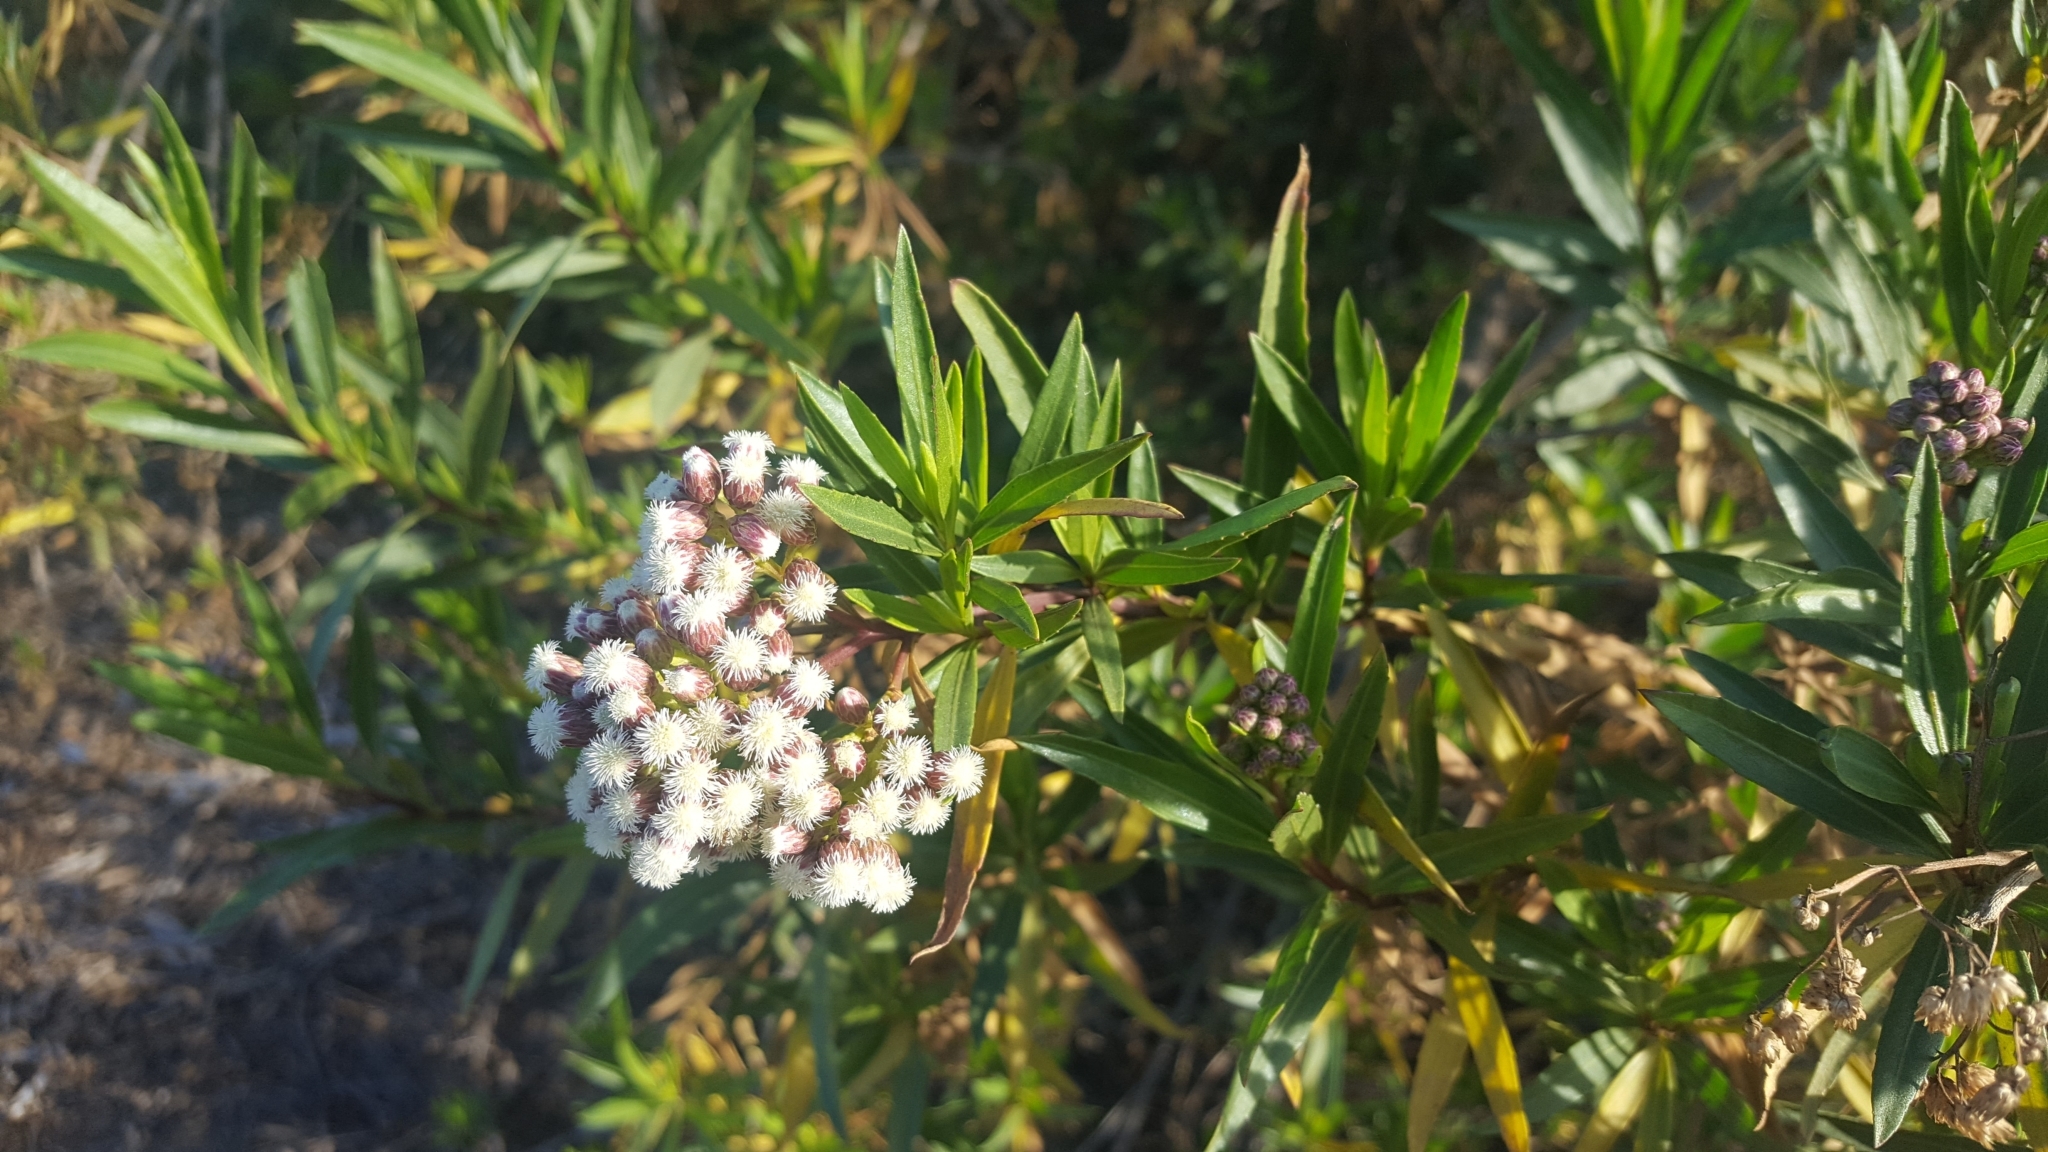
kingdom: Plantae
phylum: Tracheophyta
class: Magnoliopsida
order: Asterales
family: Asteraceae
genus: Baccharis
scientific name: Baccharis salicifolia
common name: Sticky baccharis
